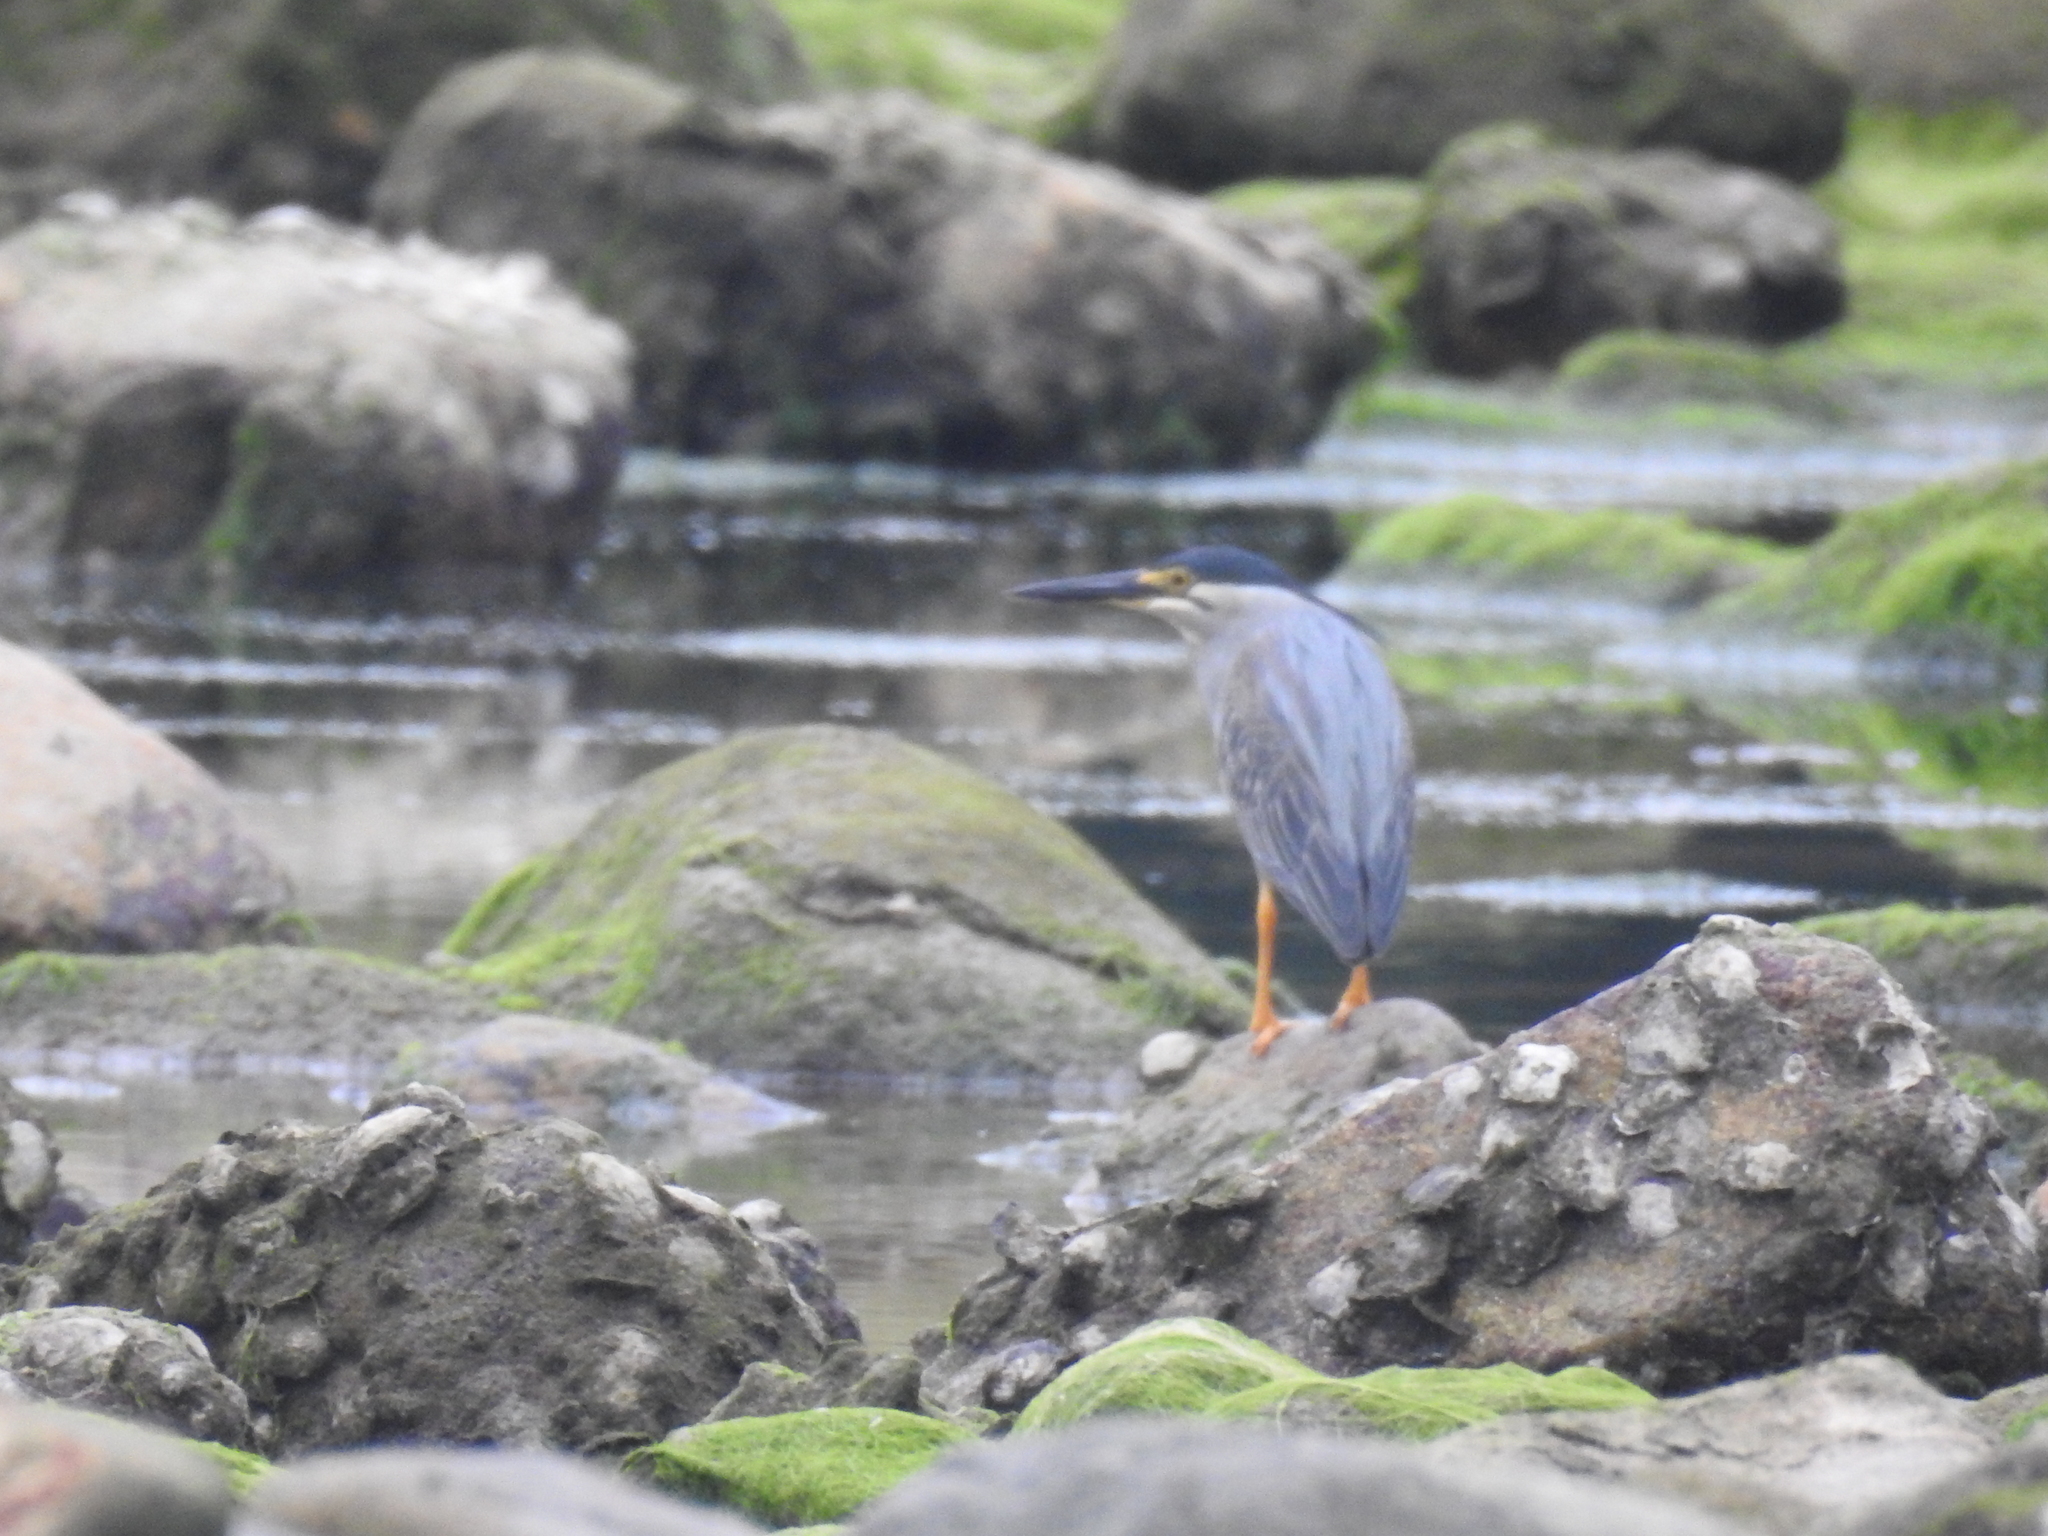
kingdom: Animalia
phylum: Chordata
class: Aves
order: Pelecaniformes
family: Ardeidae
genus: Butorides
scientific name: Butorides striata
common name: Striated heron
